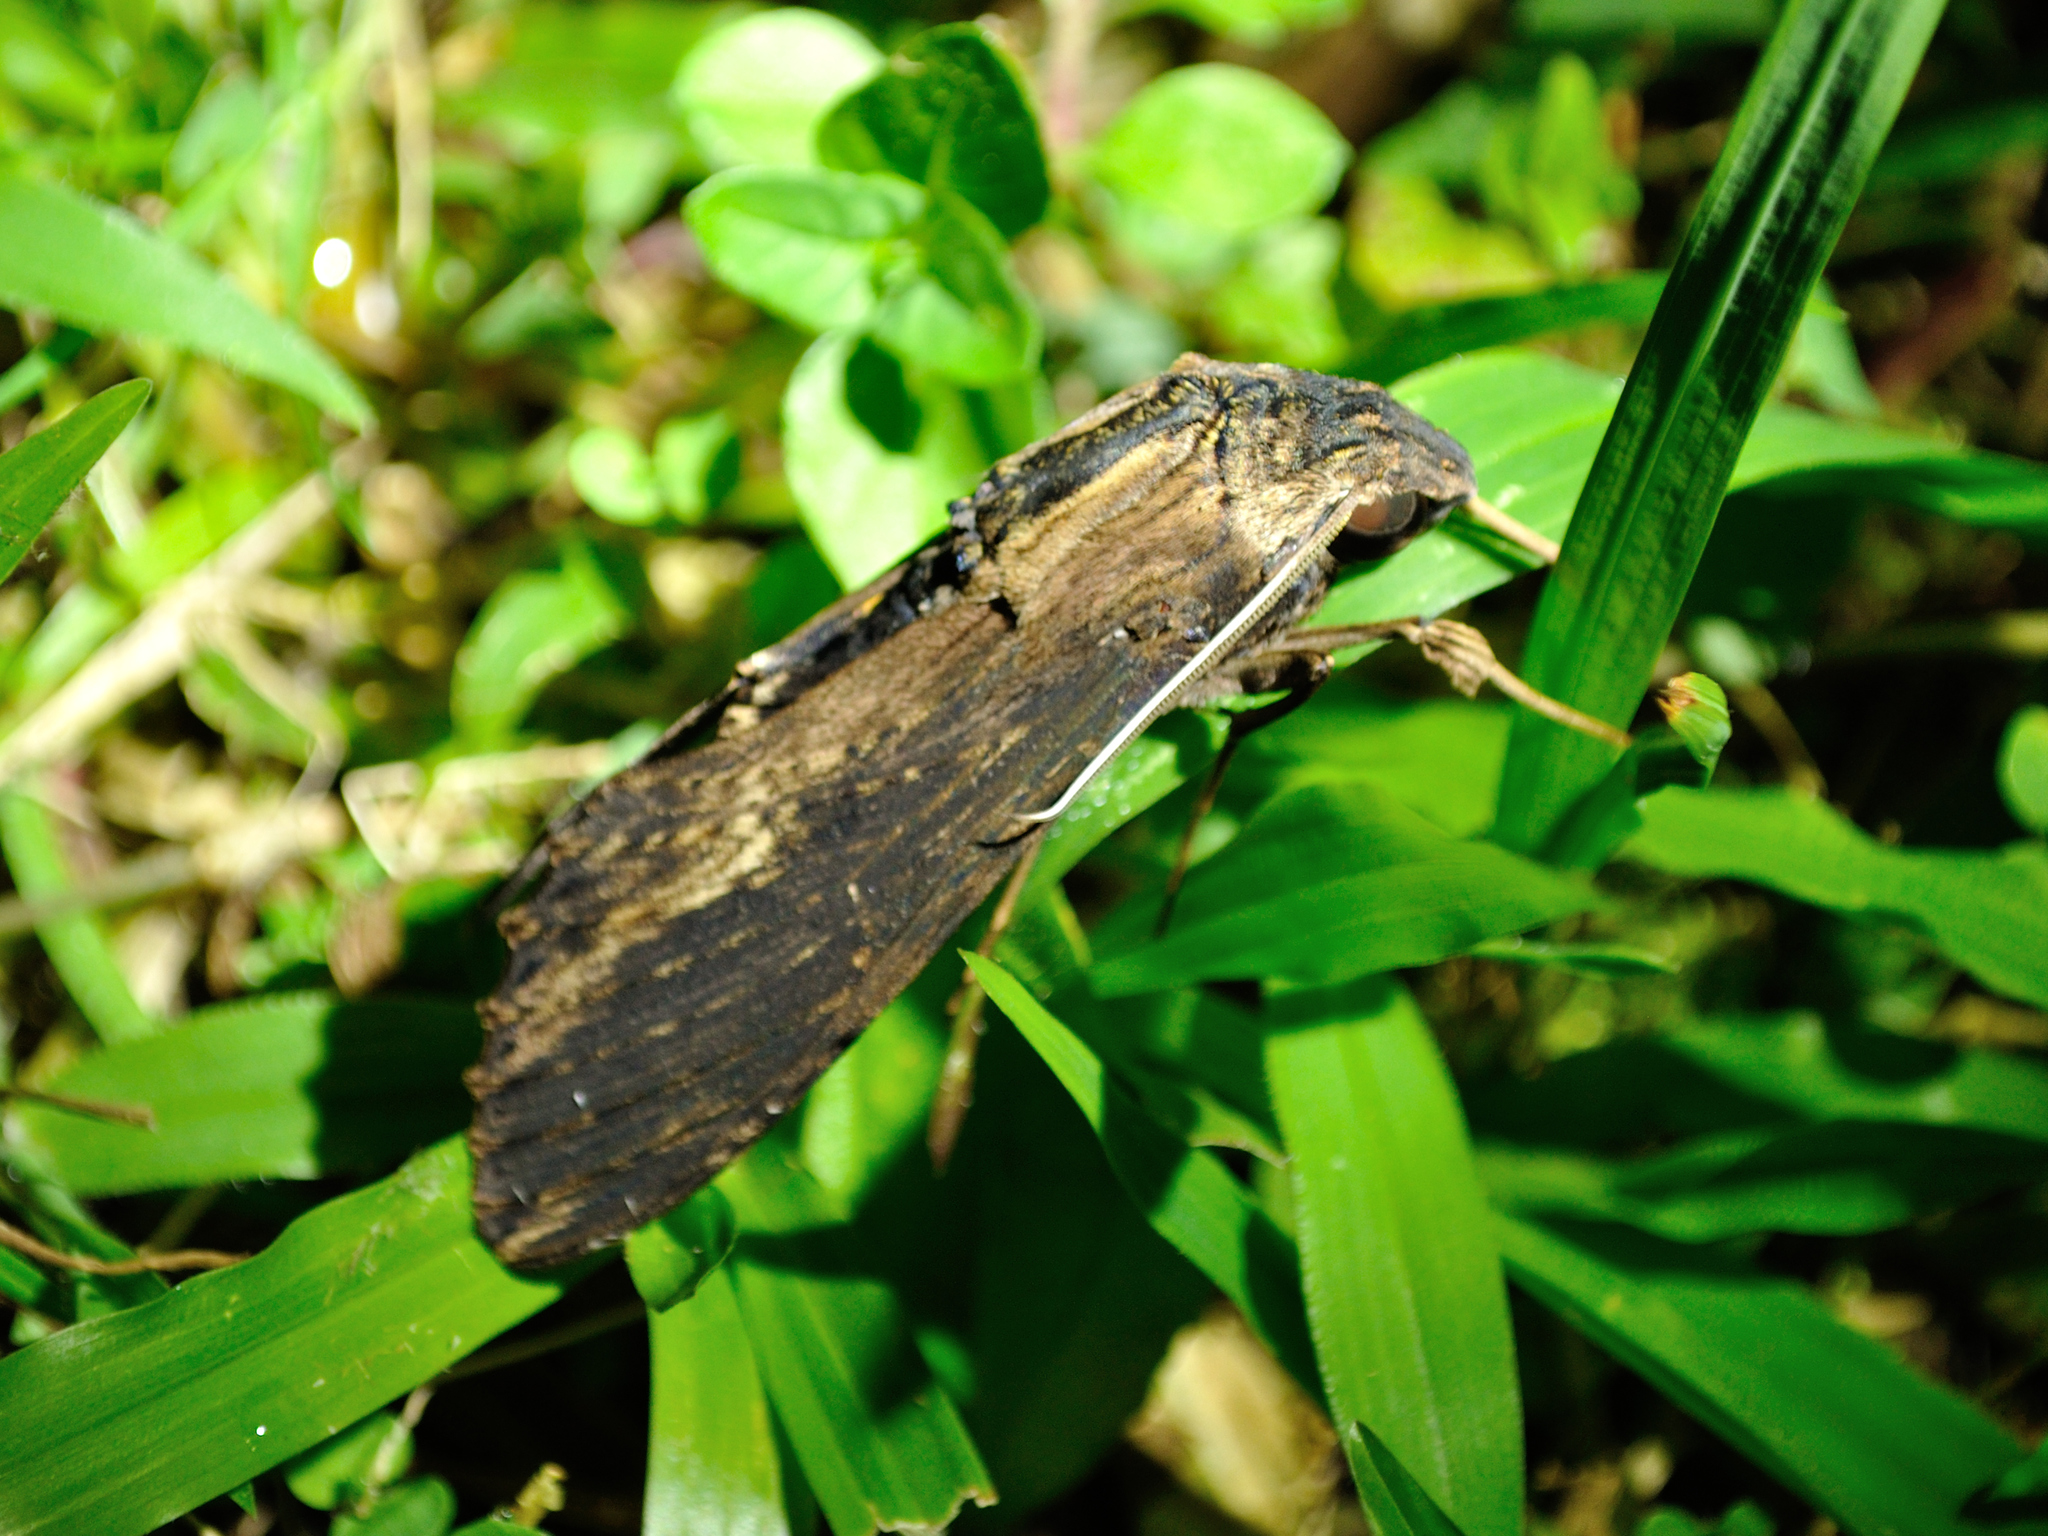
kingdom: Animalia
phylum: Arthropoda
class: Insecta
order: Lepidoptera
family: Sphingidae
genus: Erinnyis
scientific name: Erinnyis alope
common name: Alope sphinx
